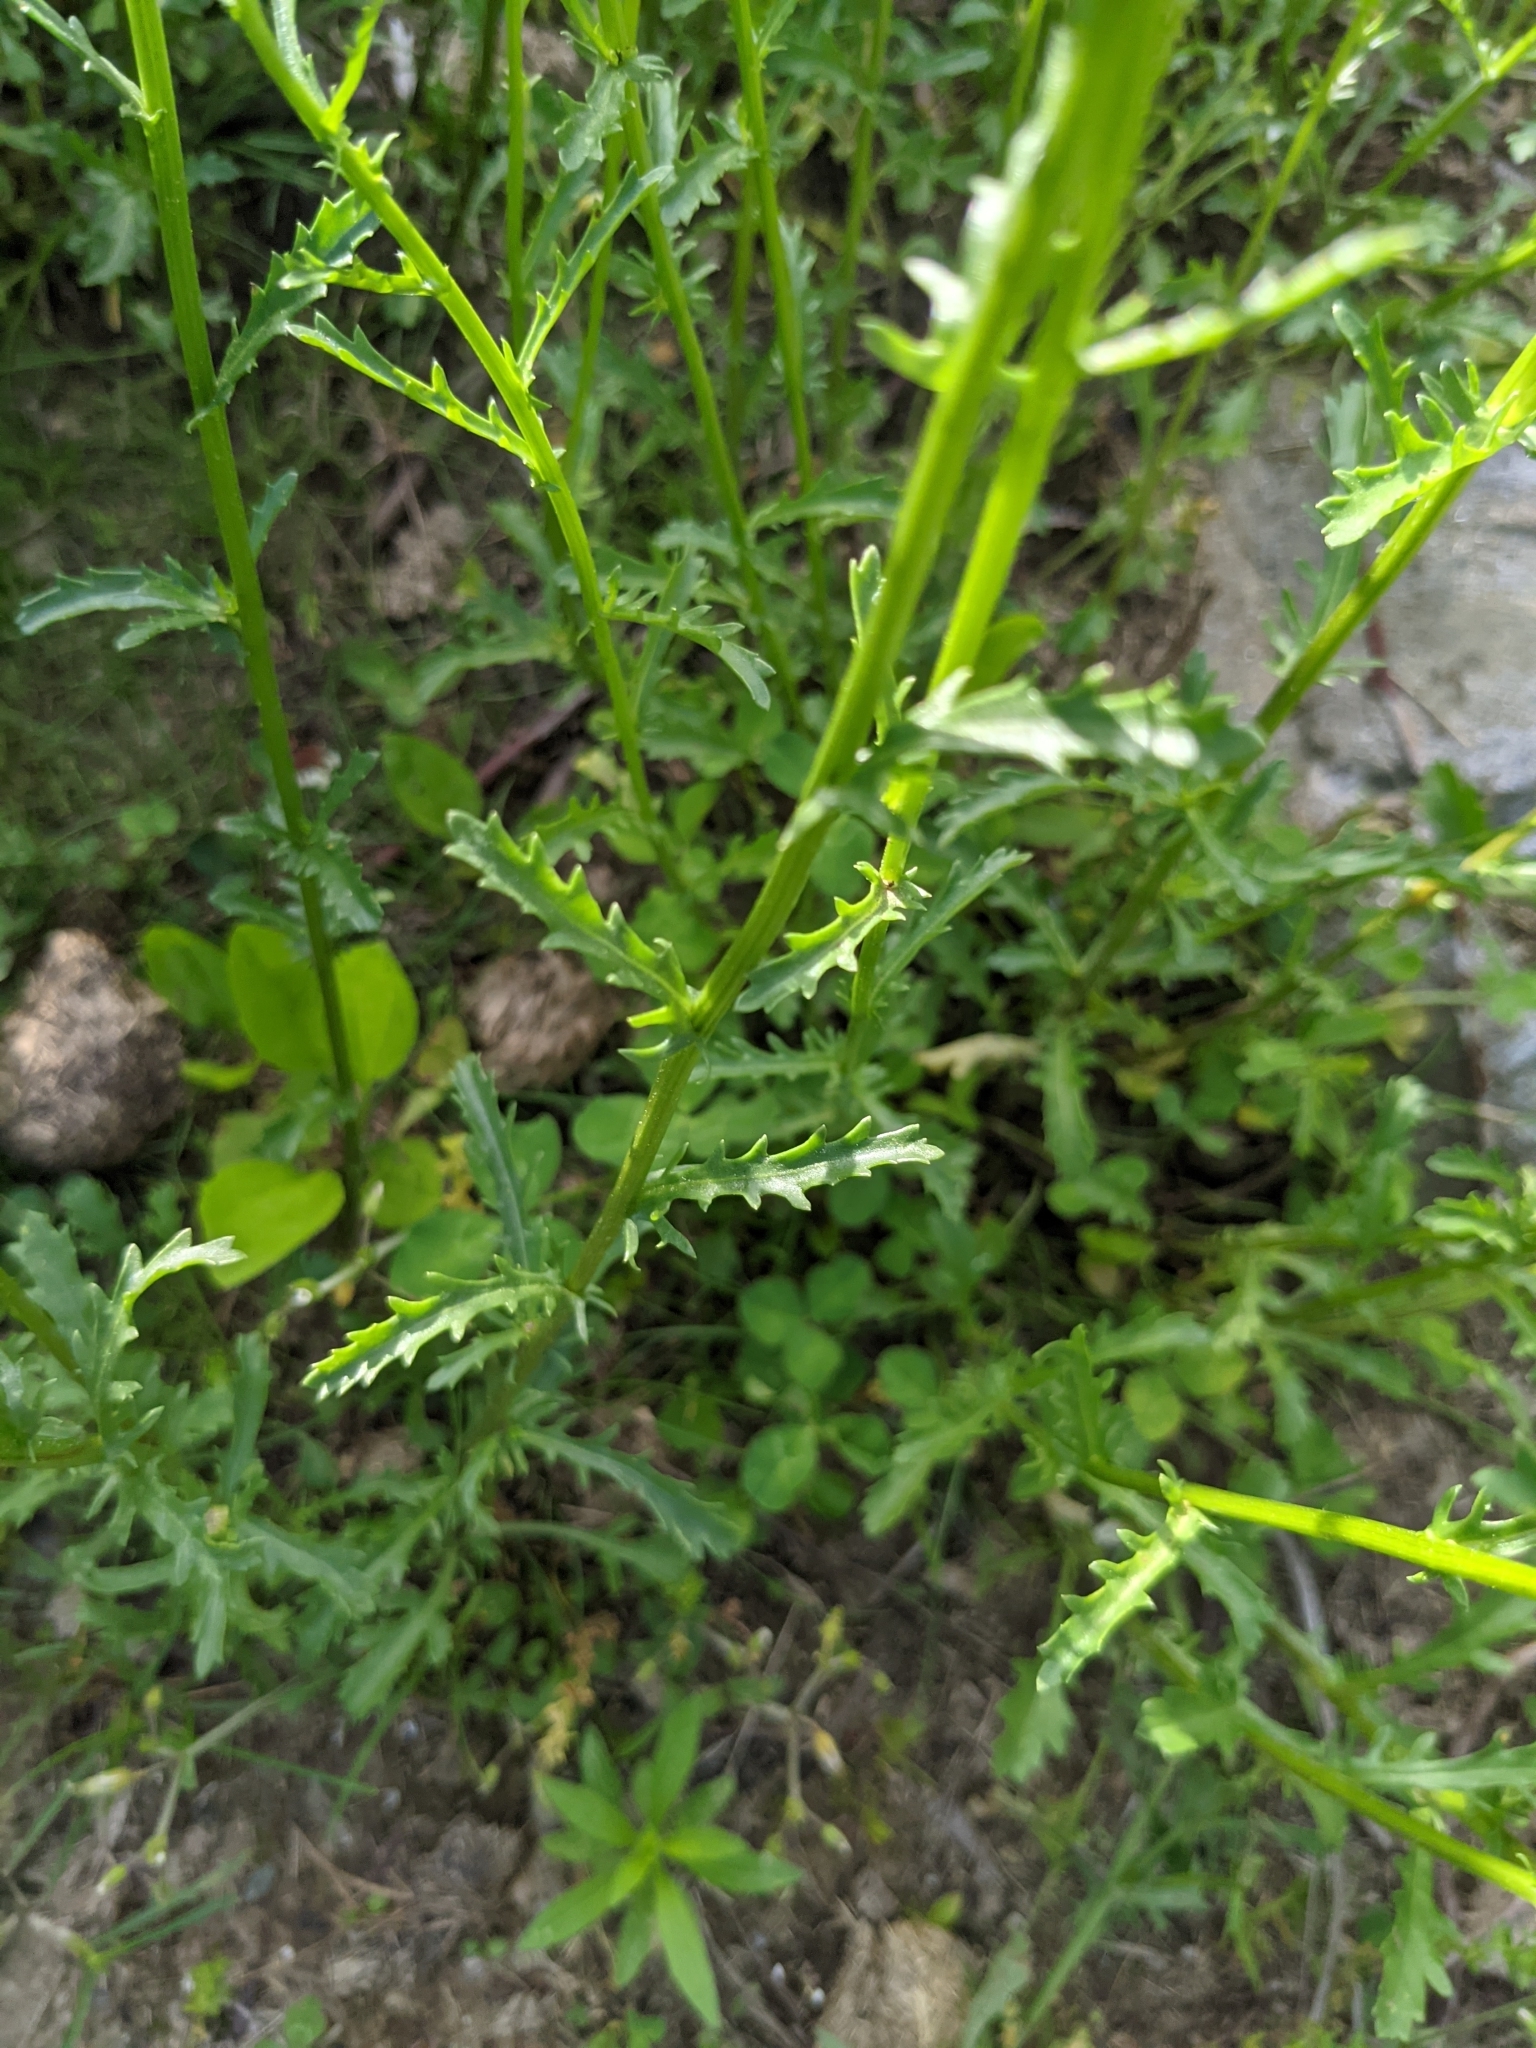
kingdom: Plantae
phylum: Tracheophyta
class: Magnoliopsida
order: Asterales
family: Asteraceae
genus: Leucanthemum
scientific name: Leucanthemum vulgare
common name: Oxeye daisy
